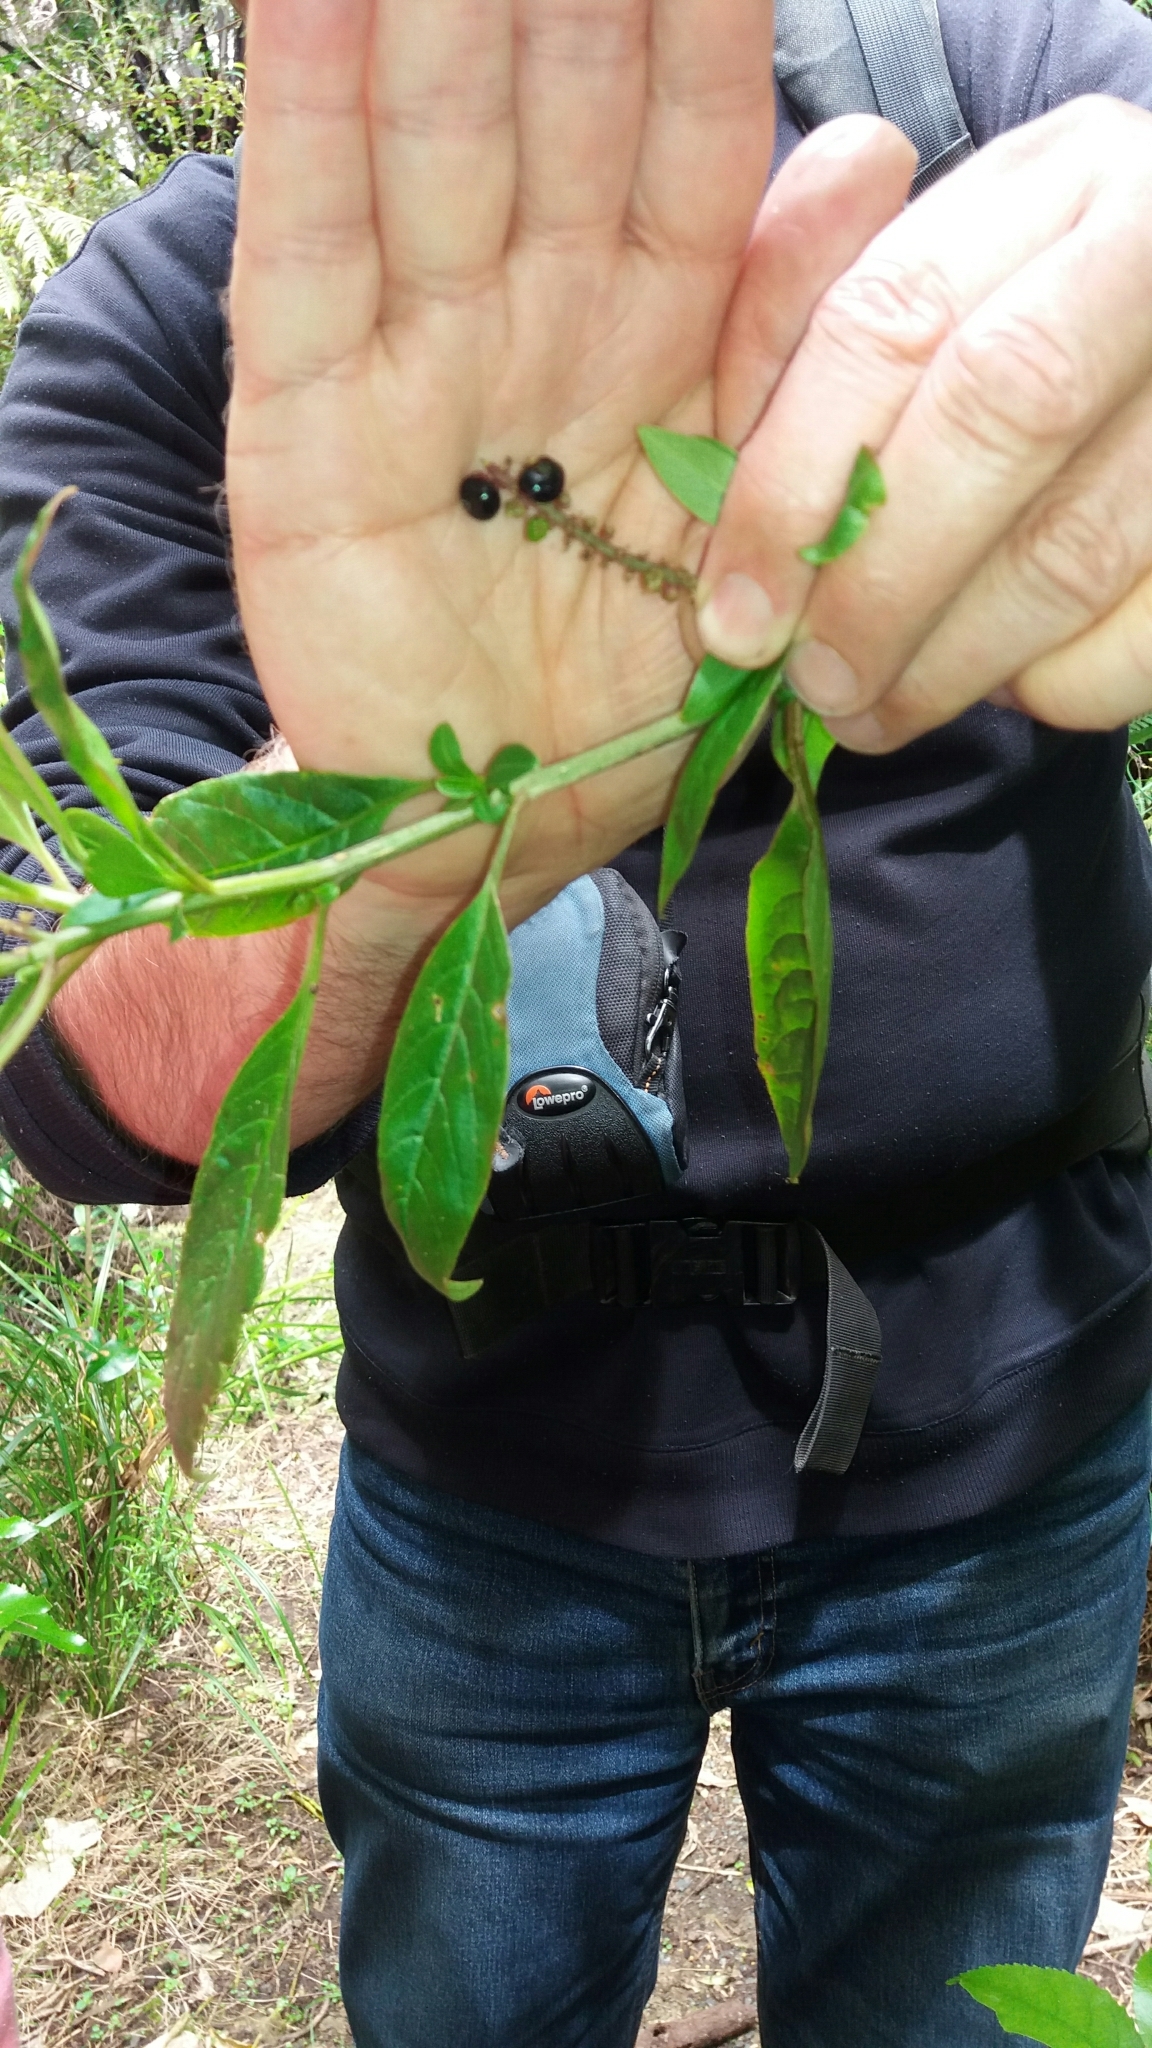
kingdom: Plantae
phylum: Tracheophyta
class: Magnoliopsida
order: Caryophyllales
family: Phytolaccaceae
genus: Phytolacca
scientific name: Phytolacca icosandra
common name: Button pokeweed
